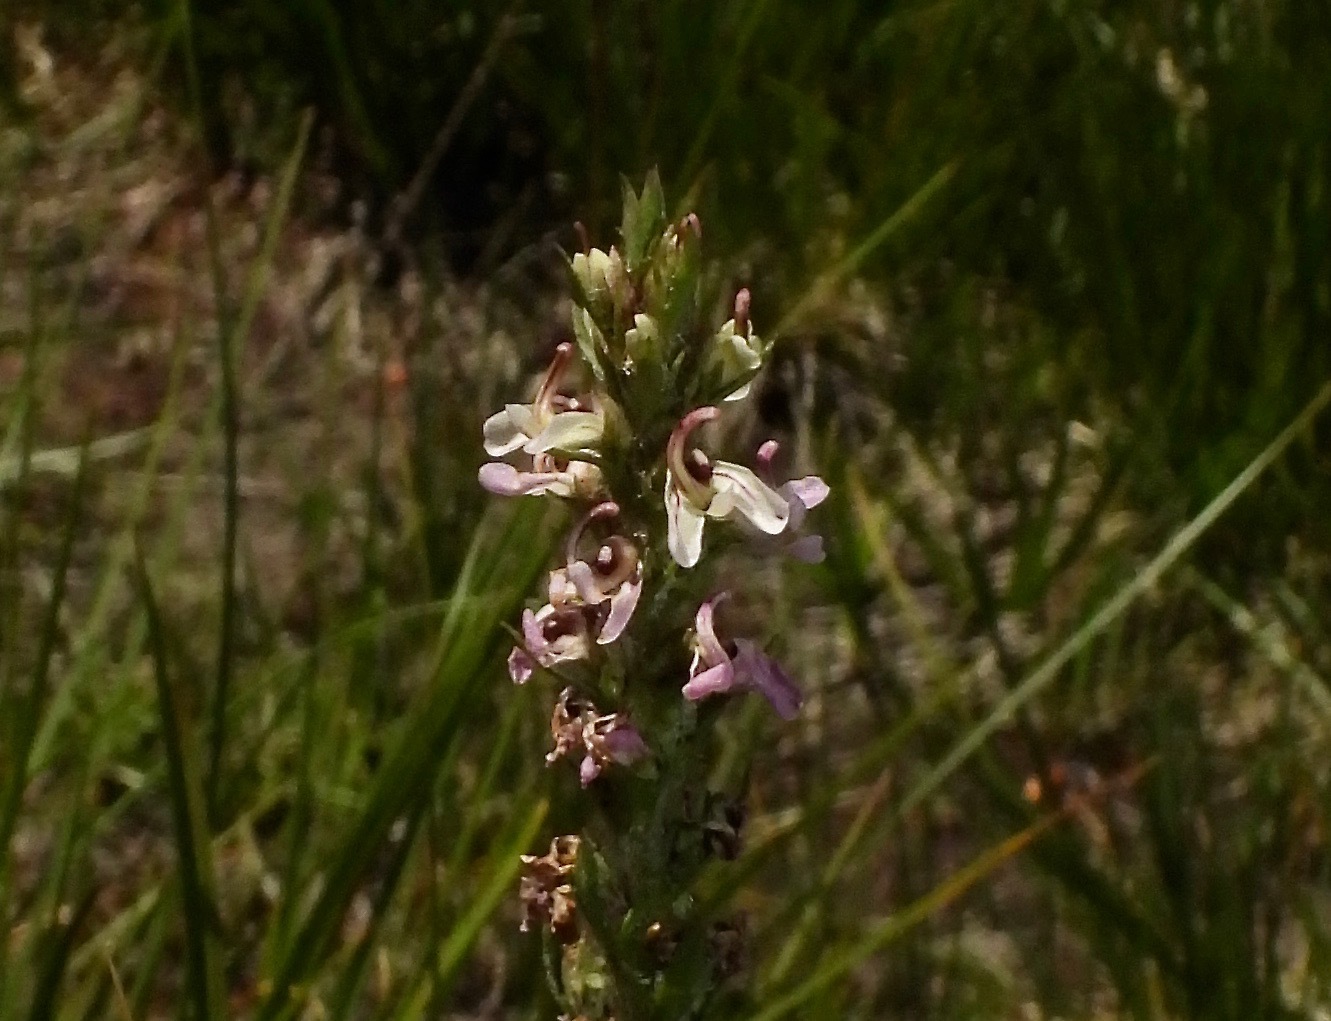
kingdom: Plantae
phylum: Tracheophyta
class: Magnoliopsida
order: Lamiales
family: Orobanchaceae
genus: Pedicularis
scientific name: Pedicularis attollens
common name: Slender pedicularis
